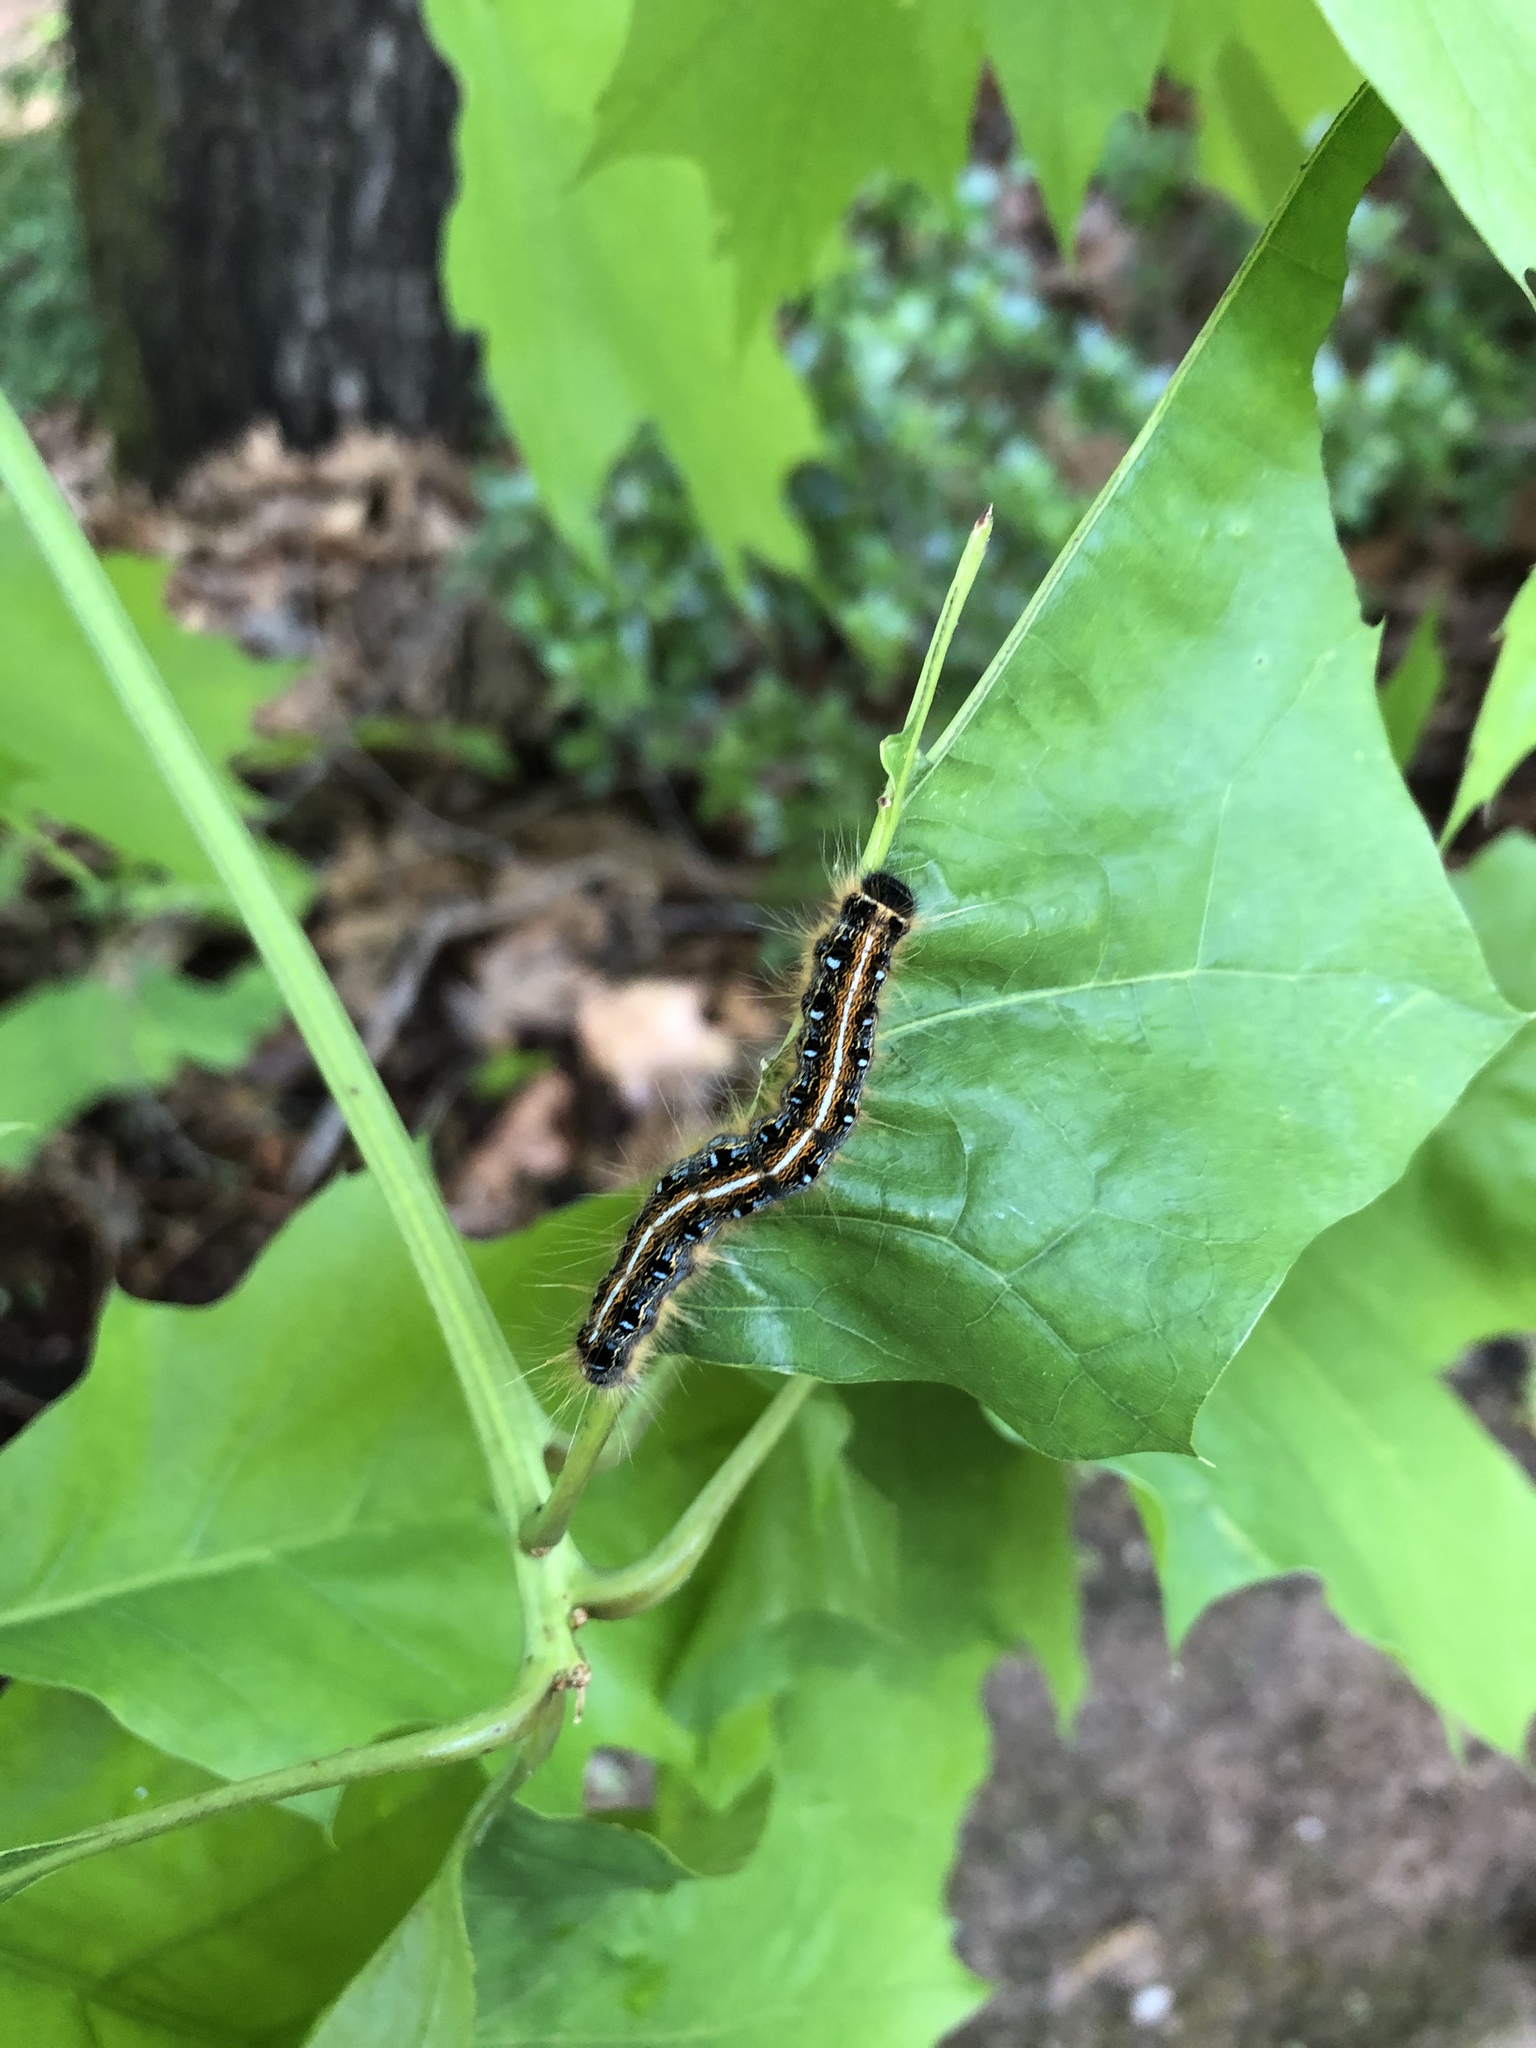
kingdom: Animalia
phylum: Arthropoda
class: Insecta
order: Lepidoptera
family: Lasiocampidae
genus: Malacosoma
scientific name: Malacosoma americana
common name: Eastern tent caterpillar moth
